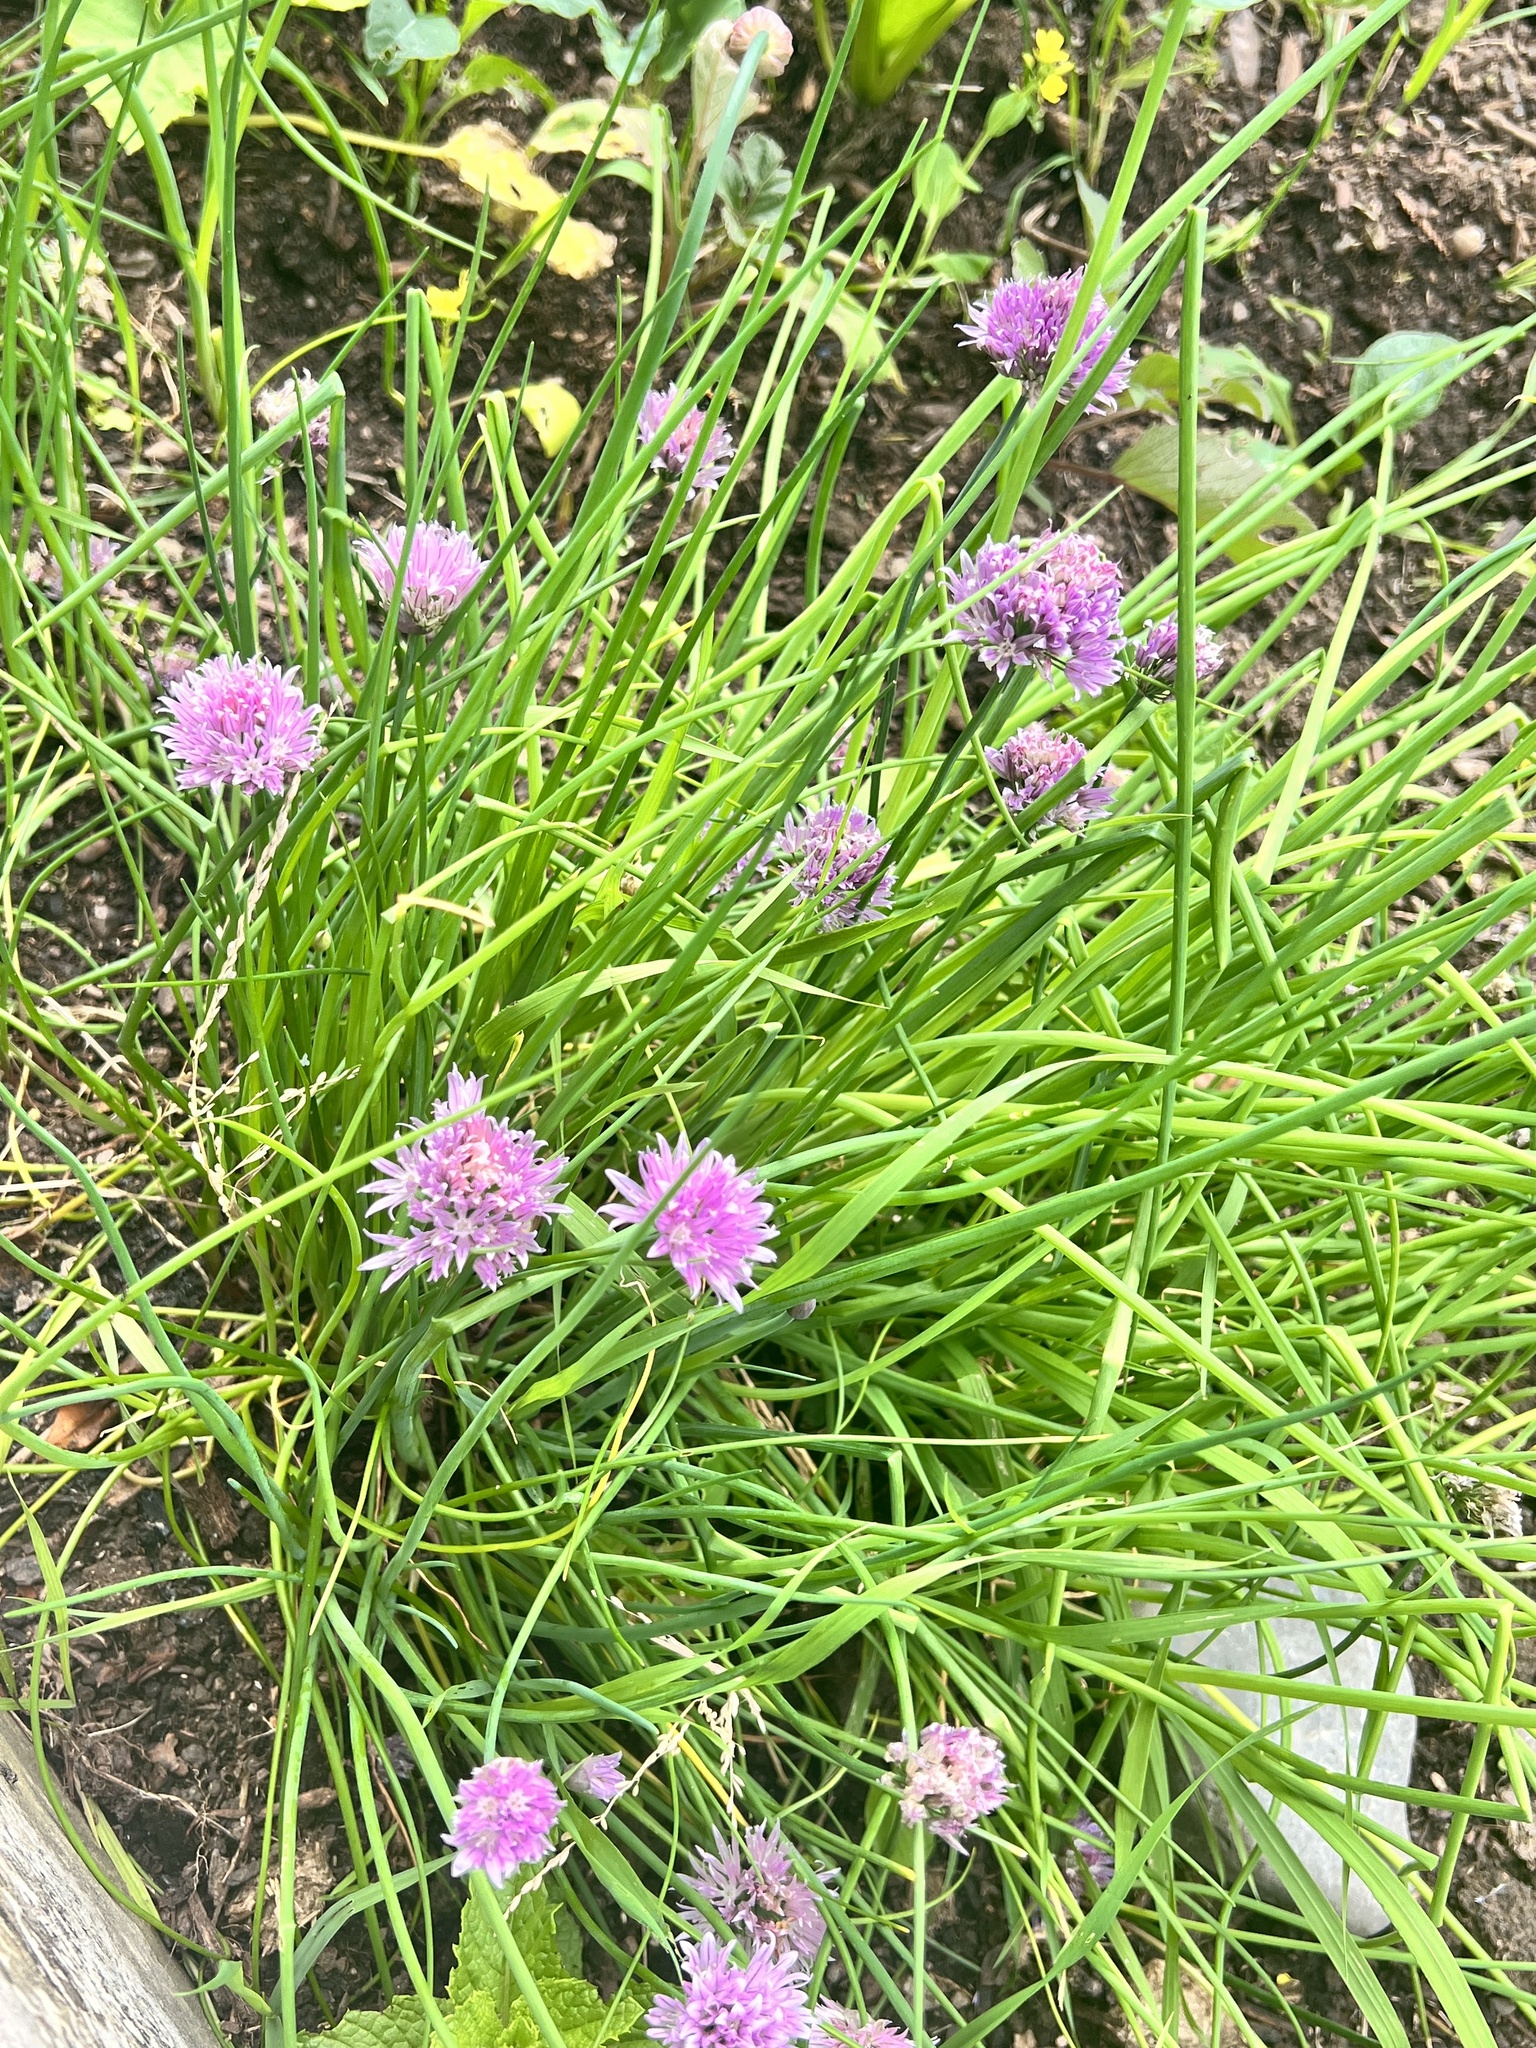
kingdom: Plantae
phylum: Tracheophyta
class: Liliopsida
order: Asparagales
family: Amaryllidaceae
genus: Allium
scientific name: Allium schoenoprasum
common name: Chives
